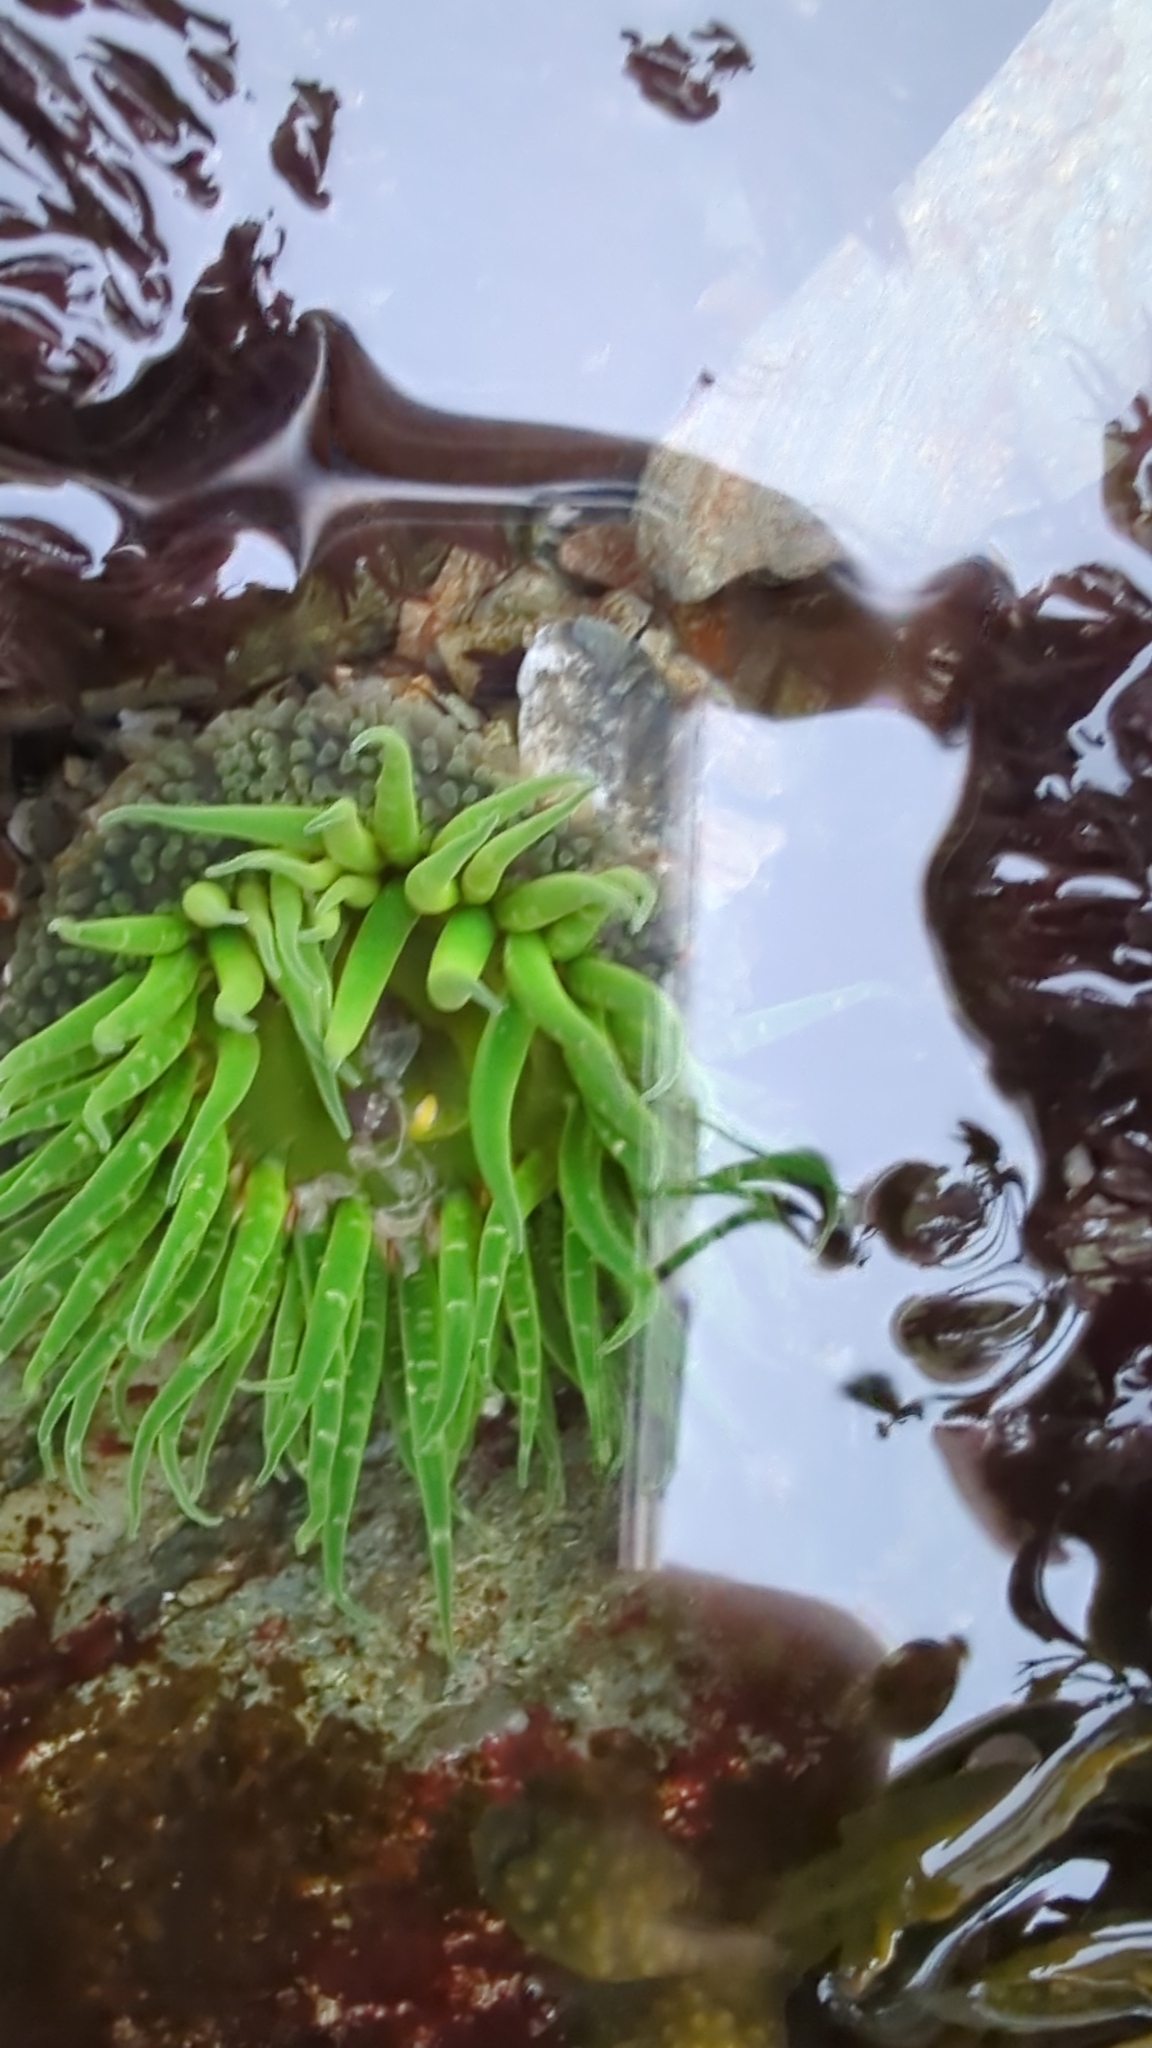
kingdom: Animalia
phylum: Cnidaria
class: Anthozoa
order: Actiniaria
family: Actiniidae
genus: Anthopleura
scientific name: Anthopleura artemisia
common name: Buried sea anemone
